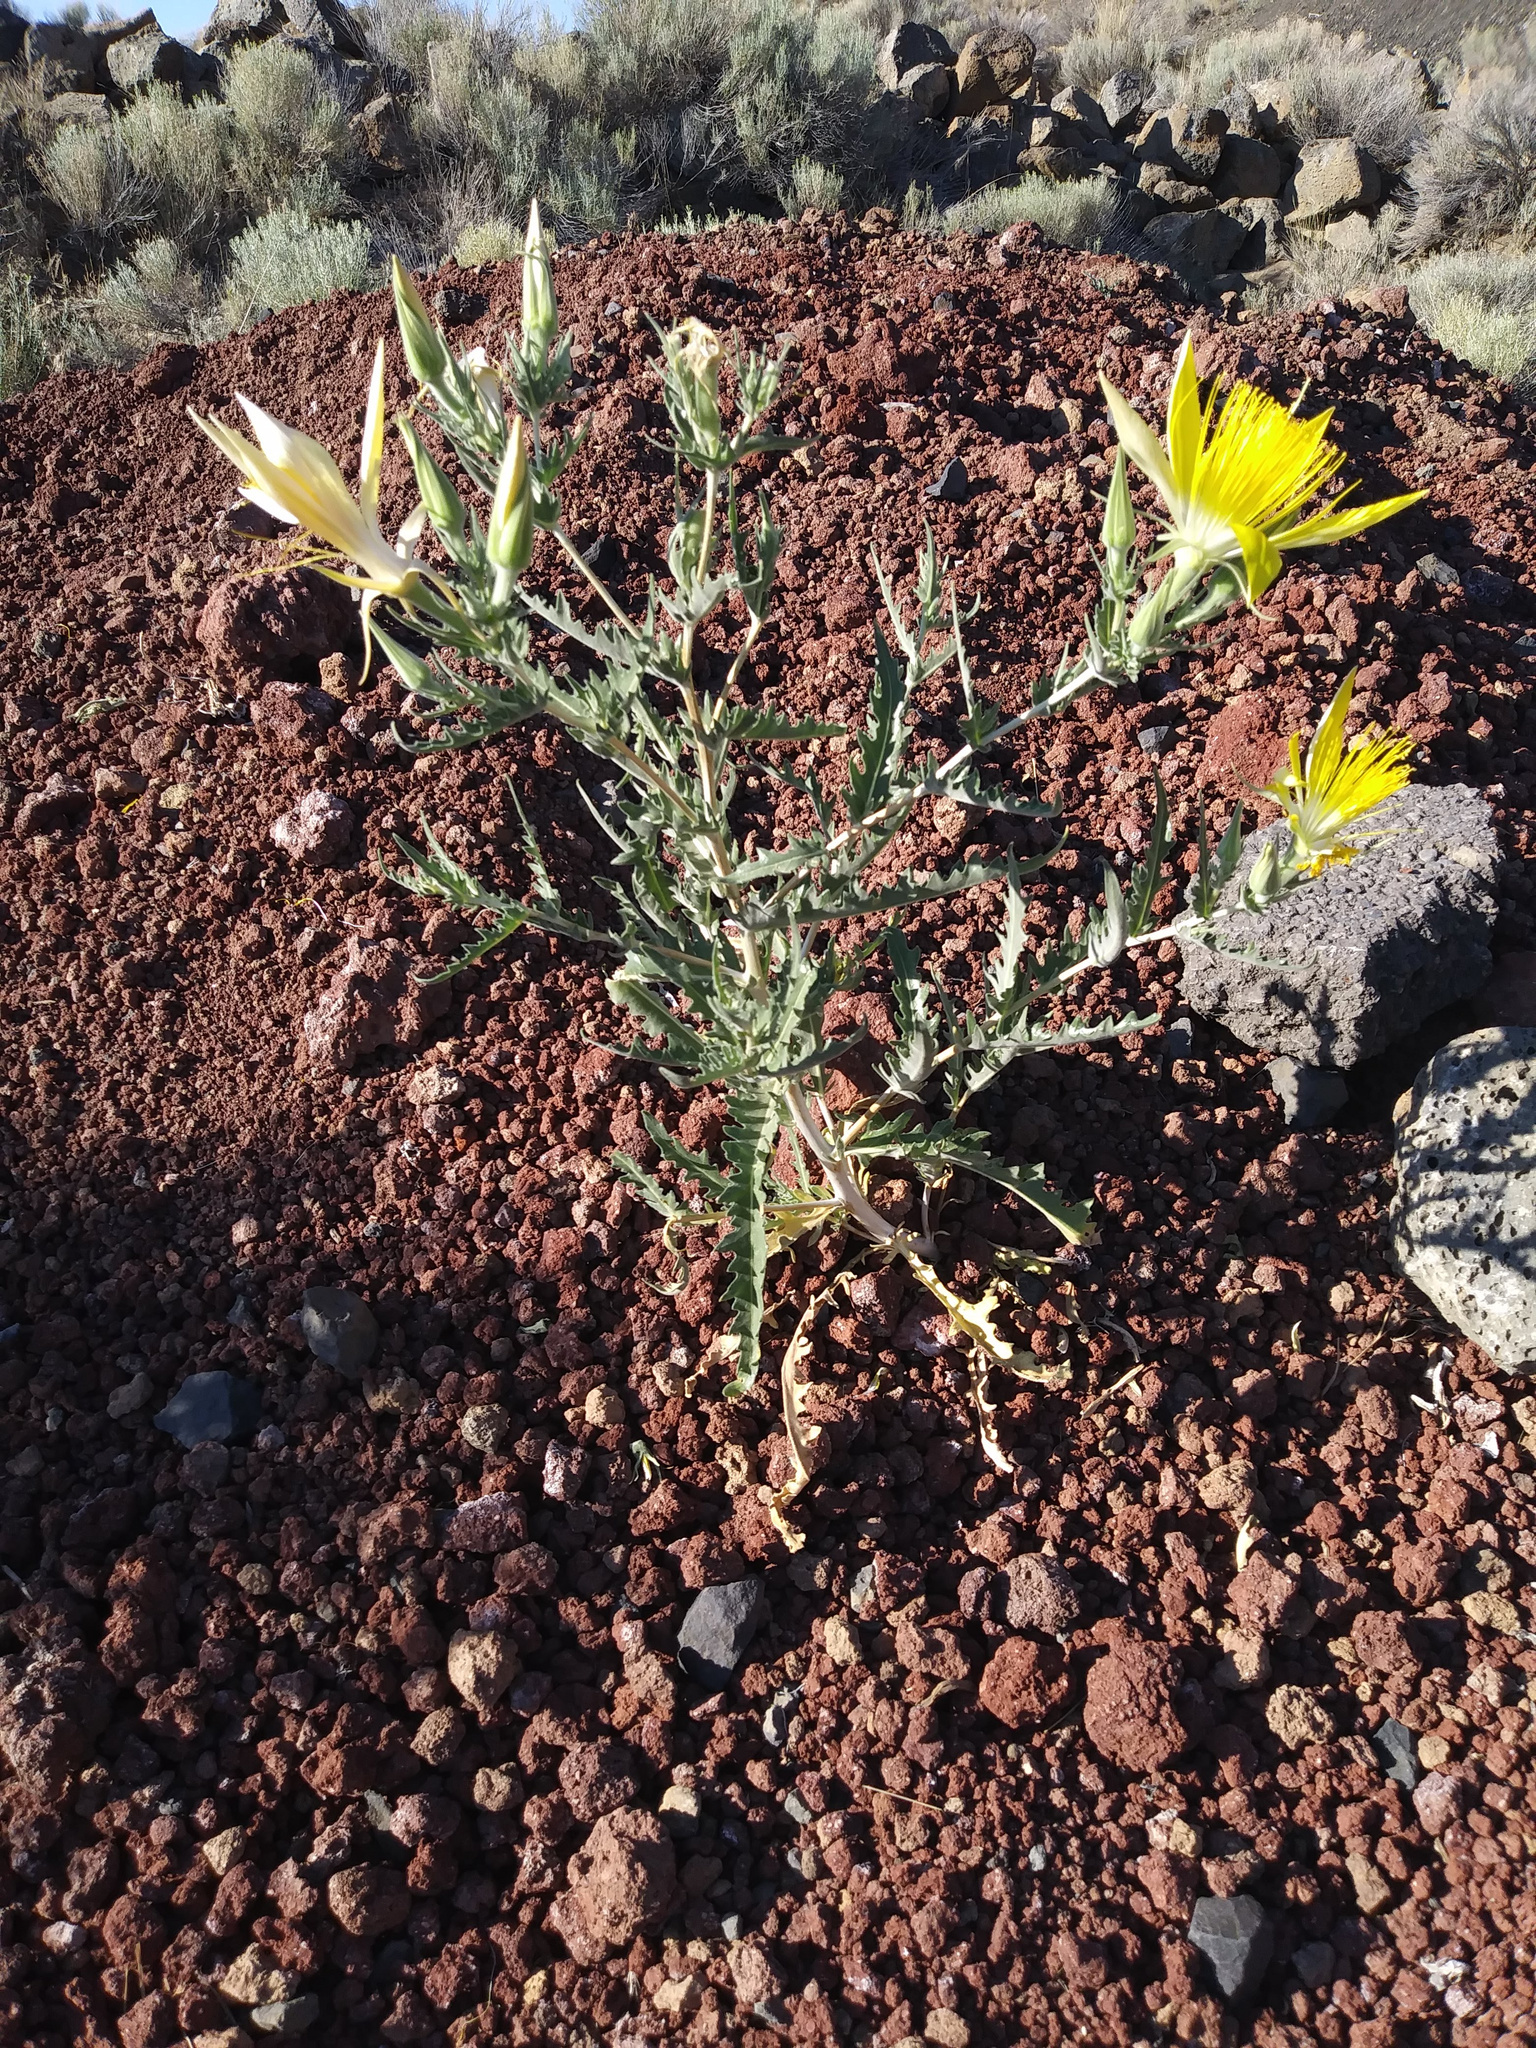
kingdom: Plantae
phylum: Tracheophyta
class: Magnoliopsida
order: Cornales
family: Loasaceae
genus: Mentzelia
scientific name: Mentzelia laevicaulis
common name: Smooth-stem blazingstar
